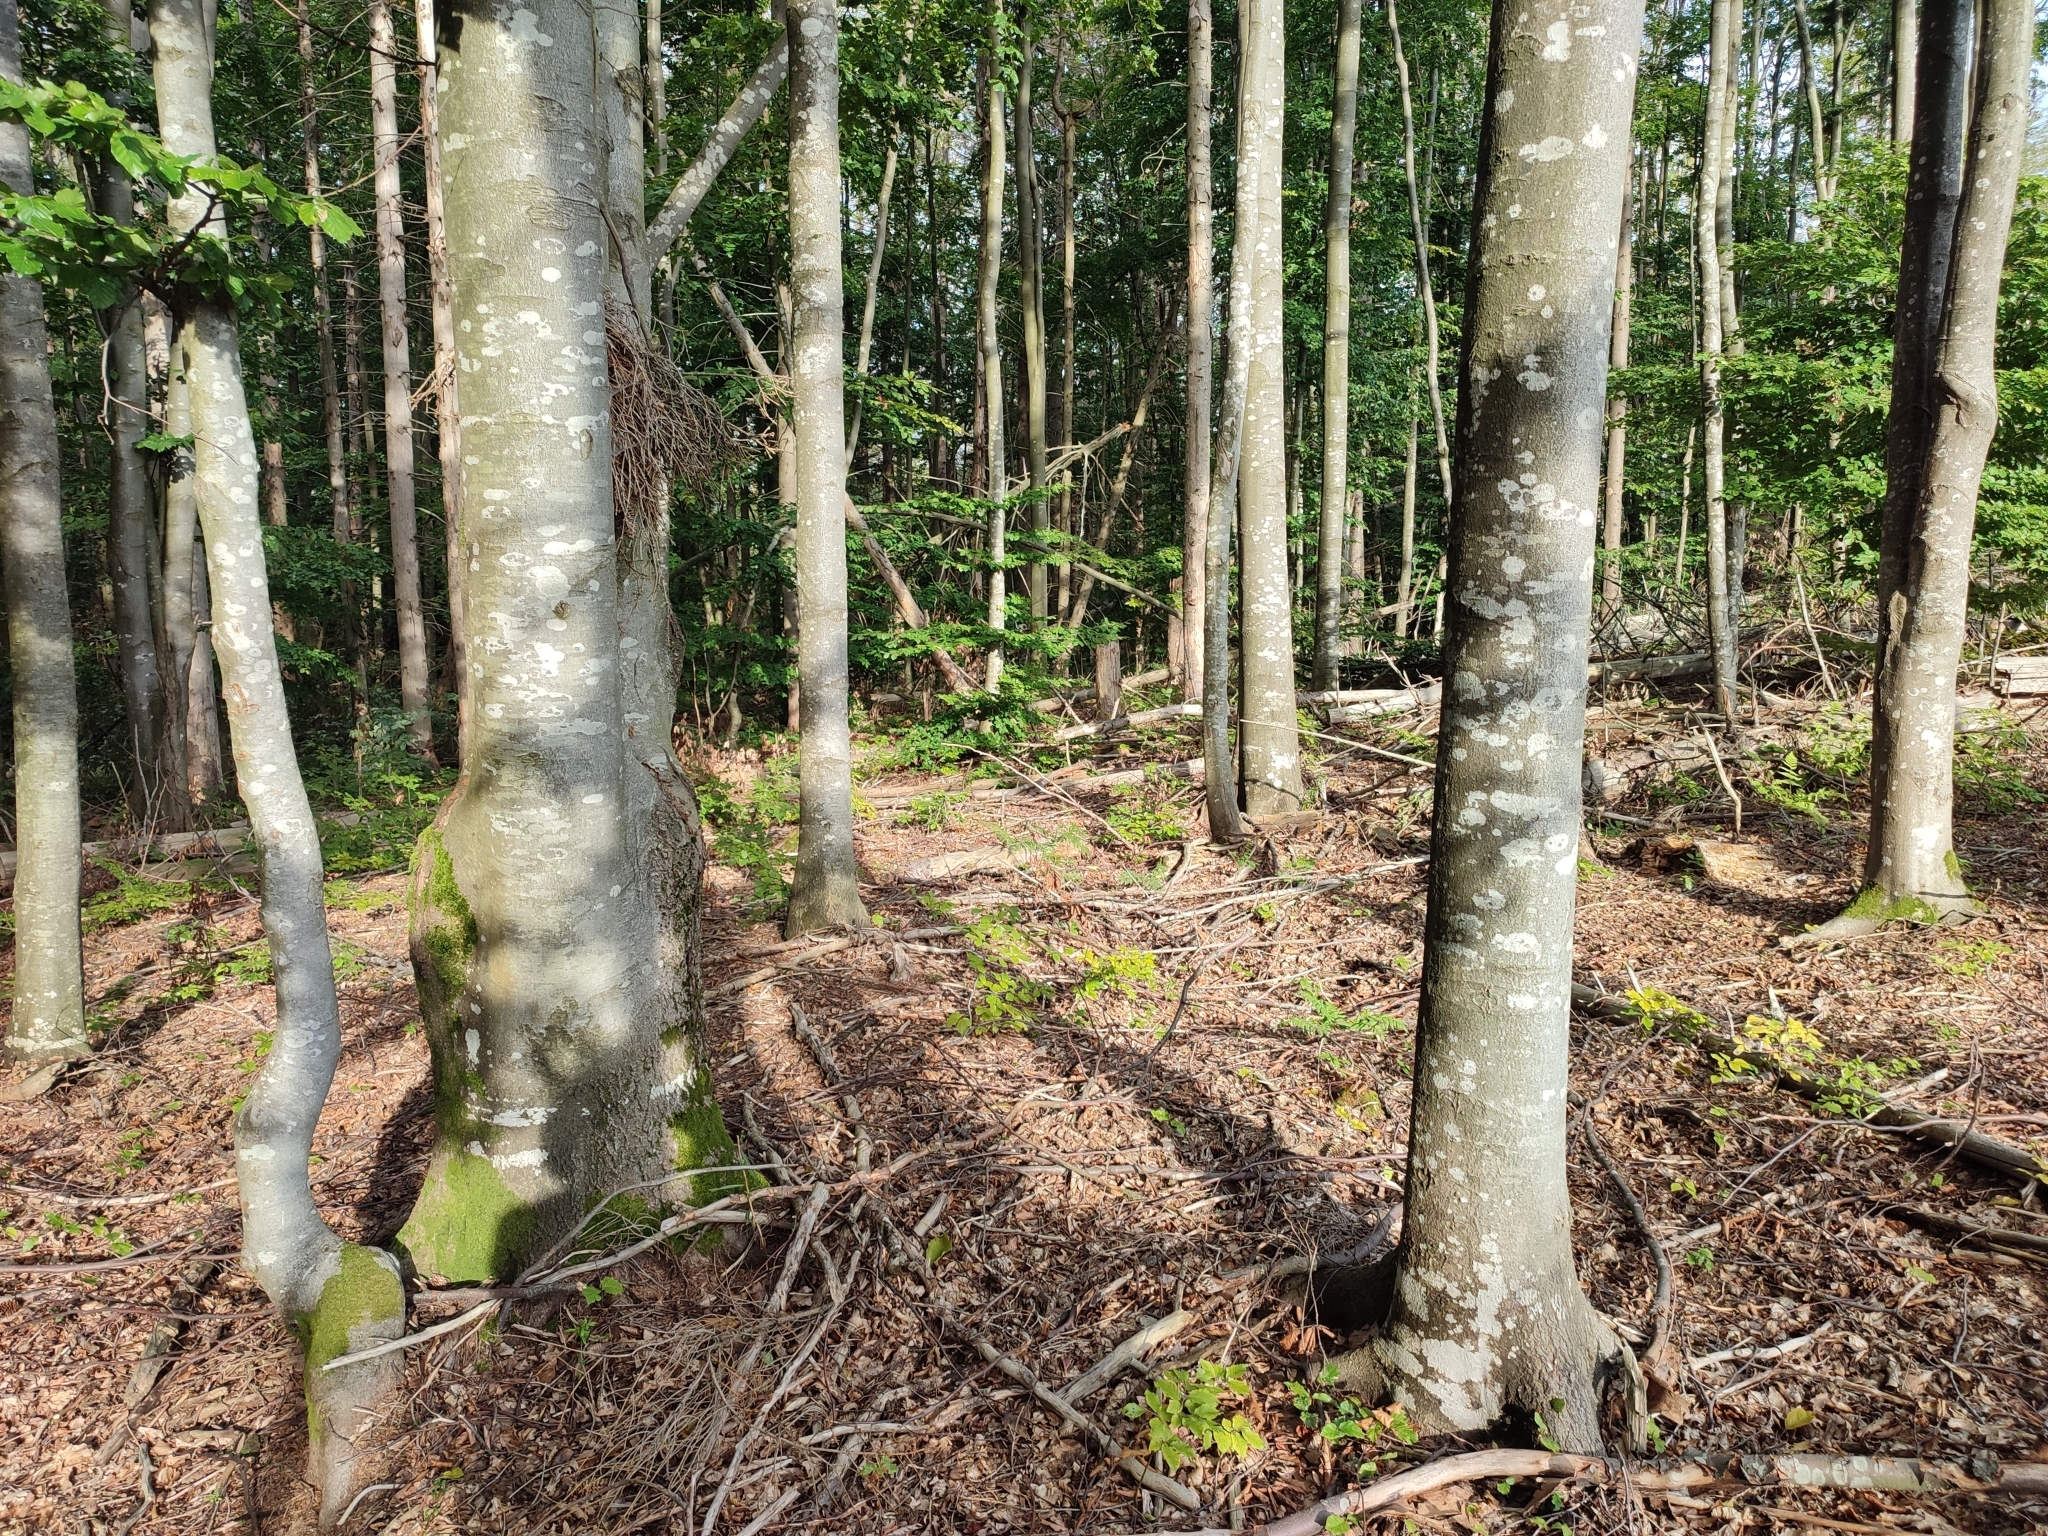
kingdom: Plantae
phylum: Tracheophyta
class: Magnoliopsida
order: Fagales
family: Fagaceae
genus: Fagus
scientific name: Fagus sylvatica
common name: Beech
